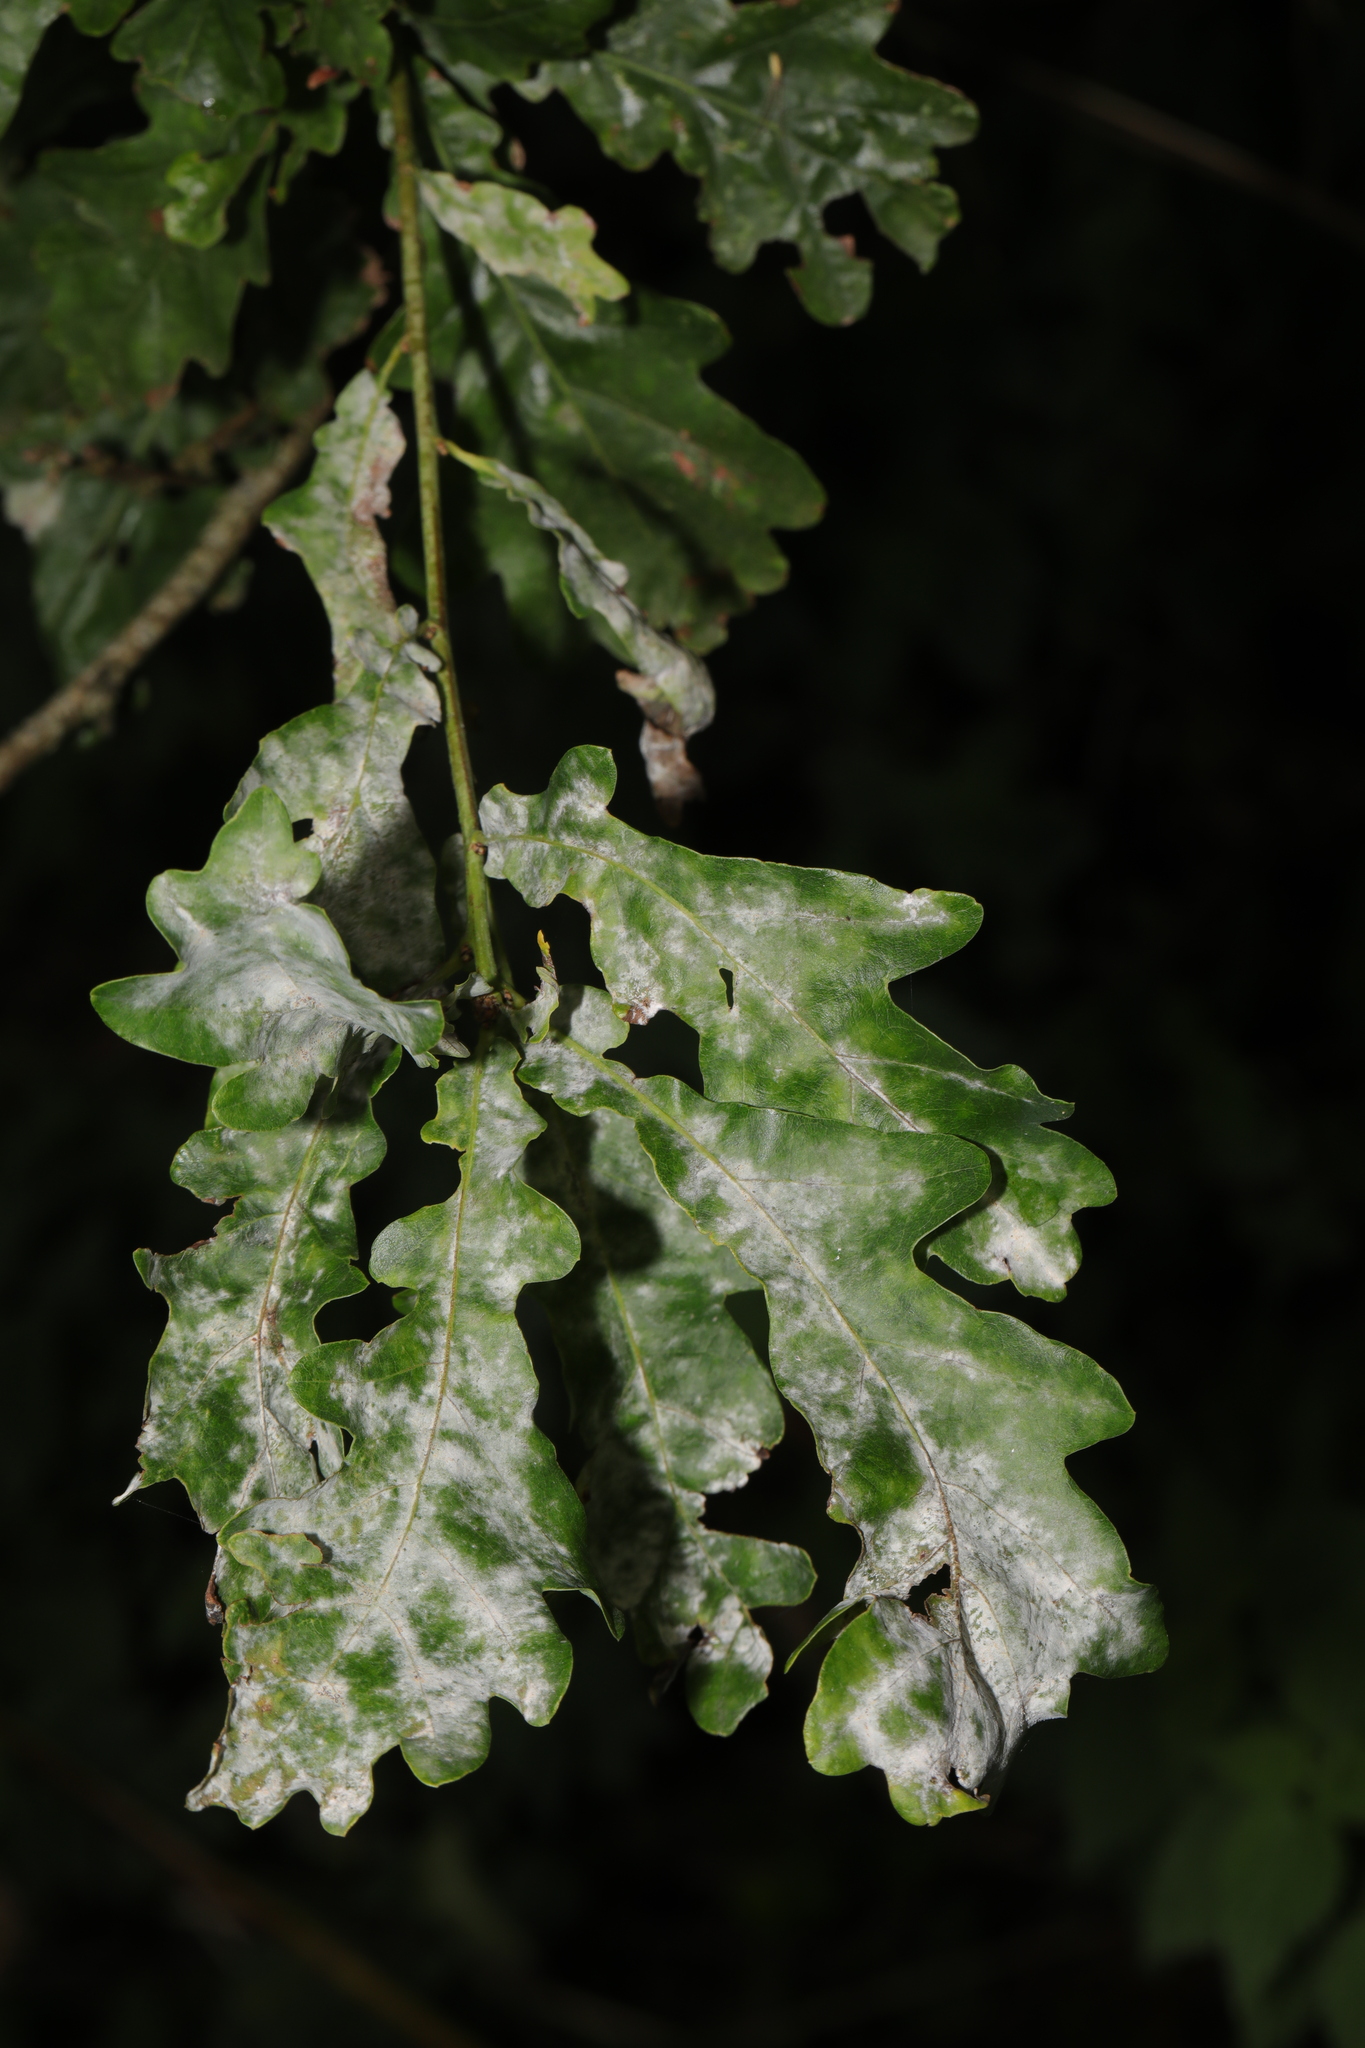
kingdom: Fungi
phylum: Ascomycota
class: Leotiomycetes
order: Helotiales
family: Erysiphaceae
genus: Erysiphe
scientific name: Erysiphe alphitoides
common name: Oak mildew
